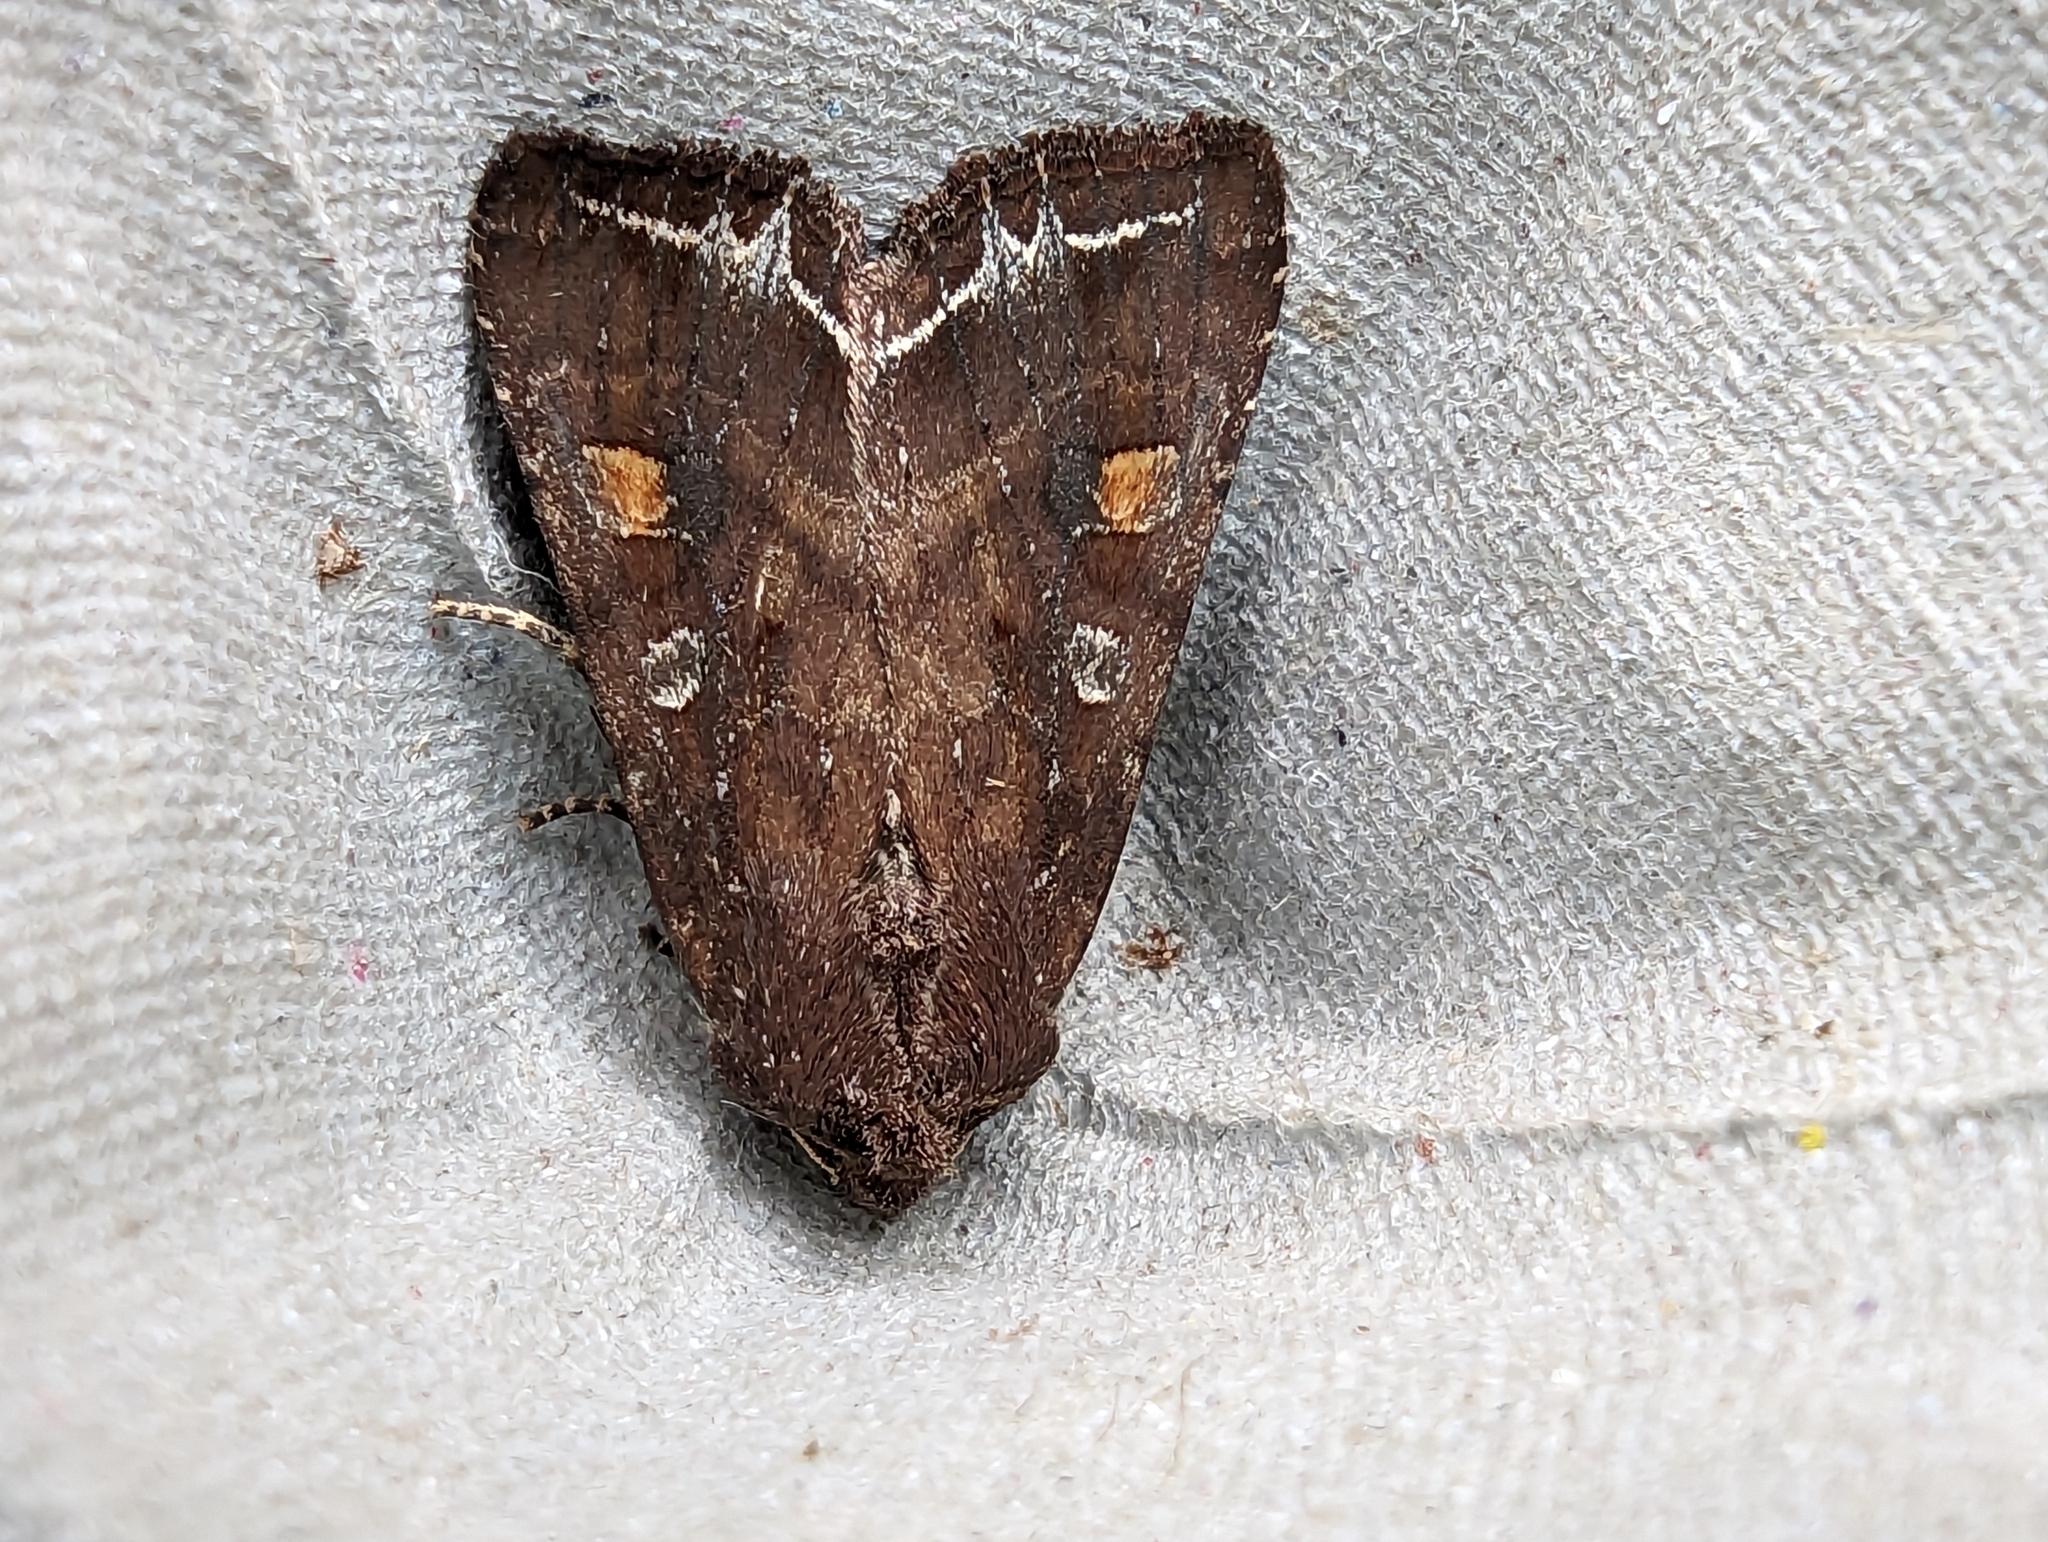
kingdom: Animalia
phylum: Arthropoda
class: Insecta
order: Lepidoptera
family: Noctuidae
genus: Lacanobia
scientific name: Lacanobia oleracea
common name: Bright-line brown-eye
